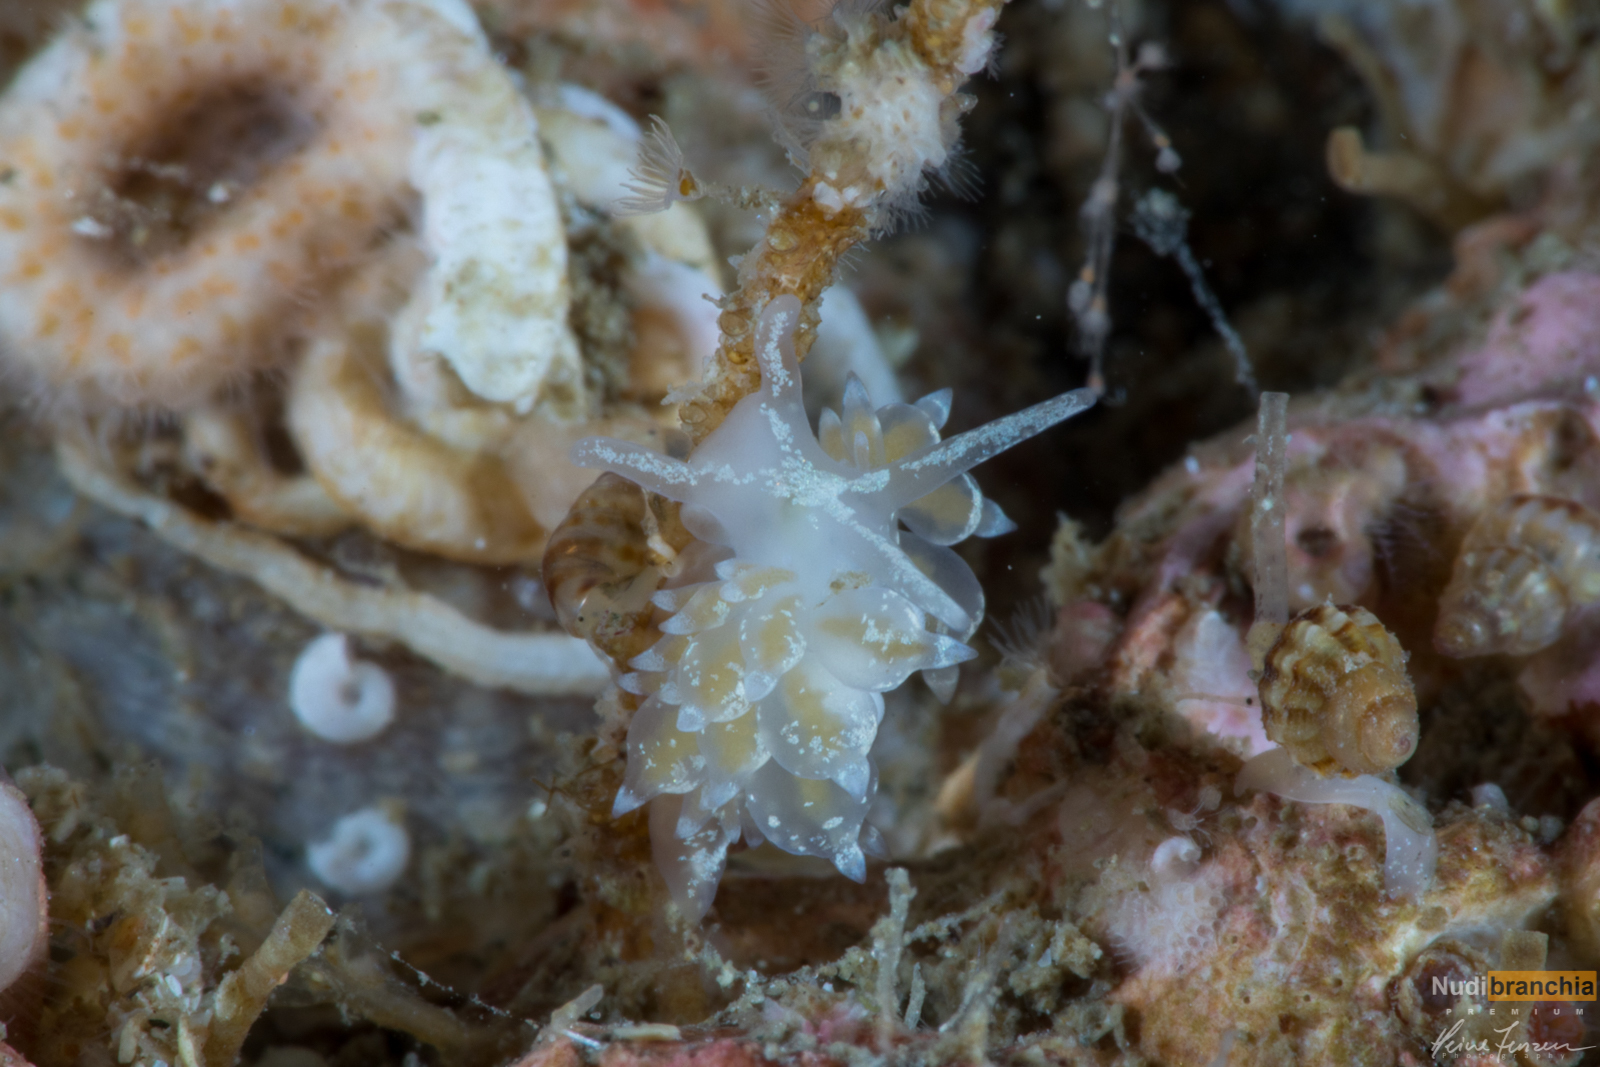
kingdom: Animalia
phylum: Mollusca
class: Gastropoda
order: Nudibranchia
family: Eubranchidae
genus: Amphorina
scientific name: Amphorina pallida
